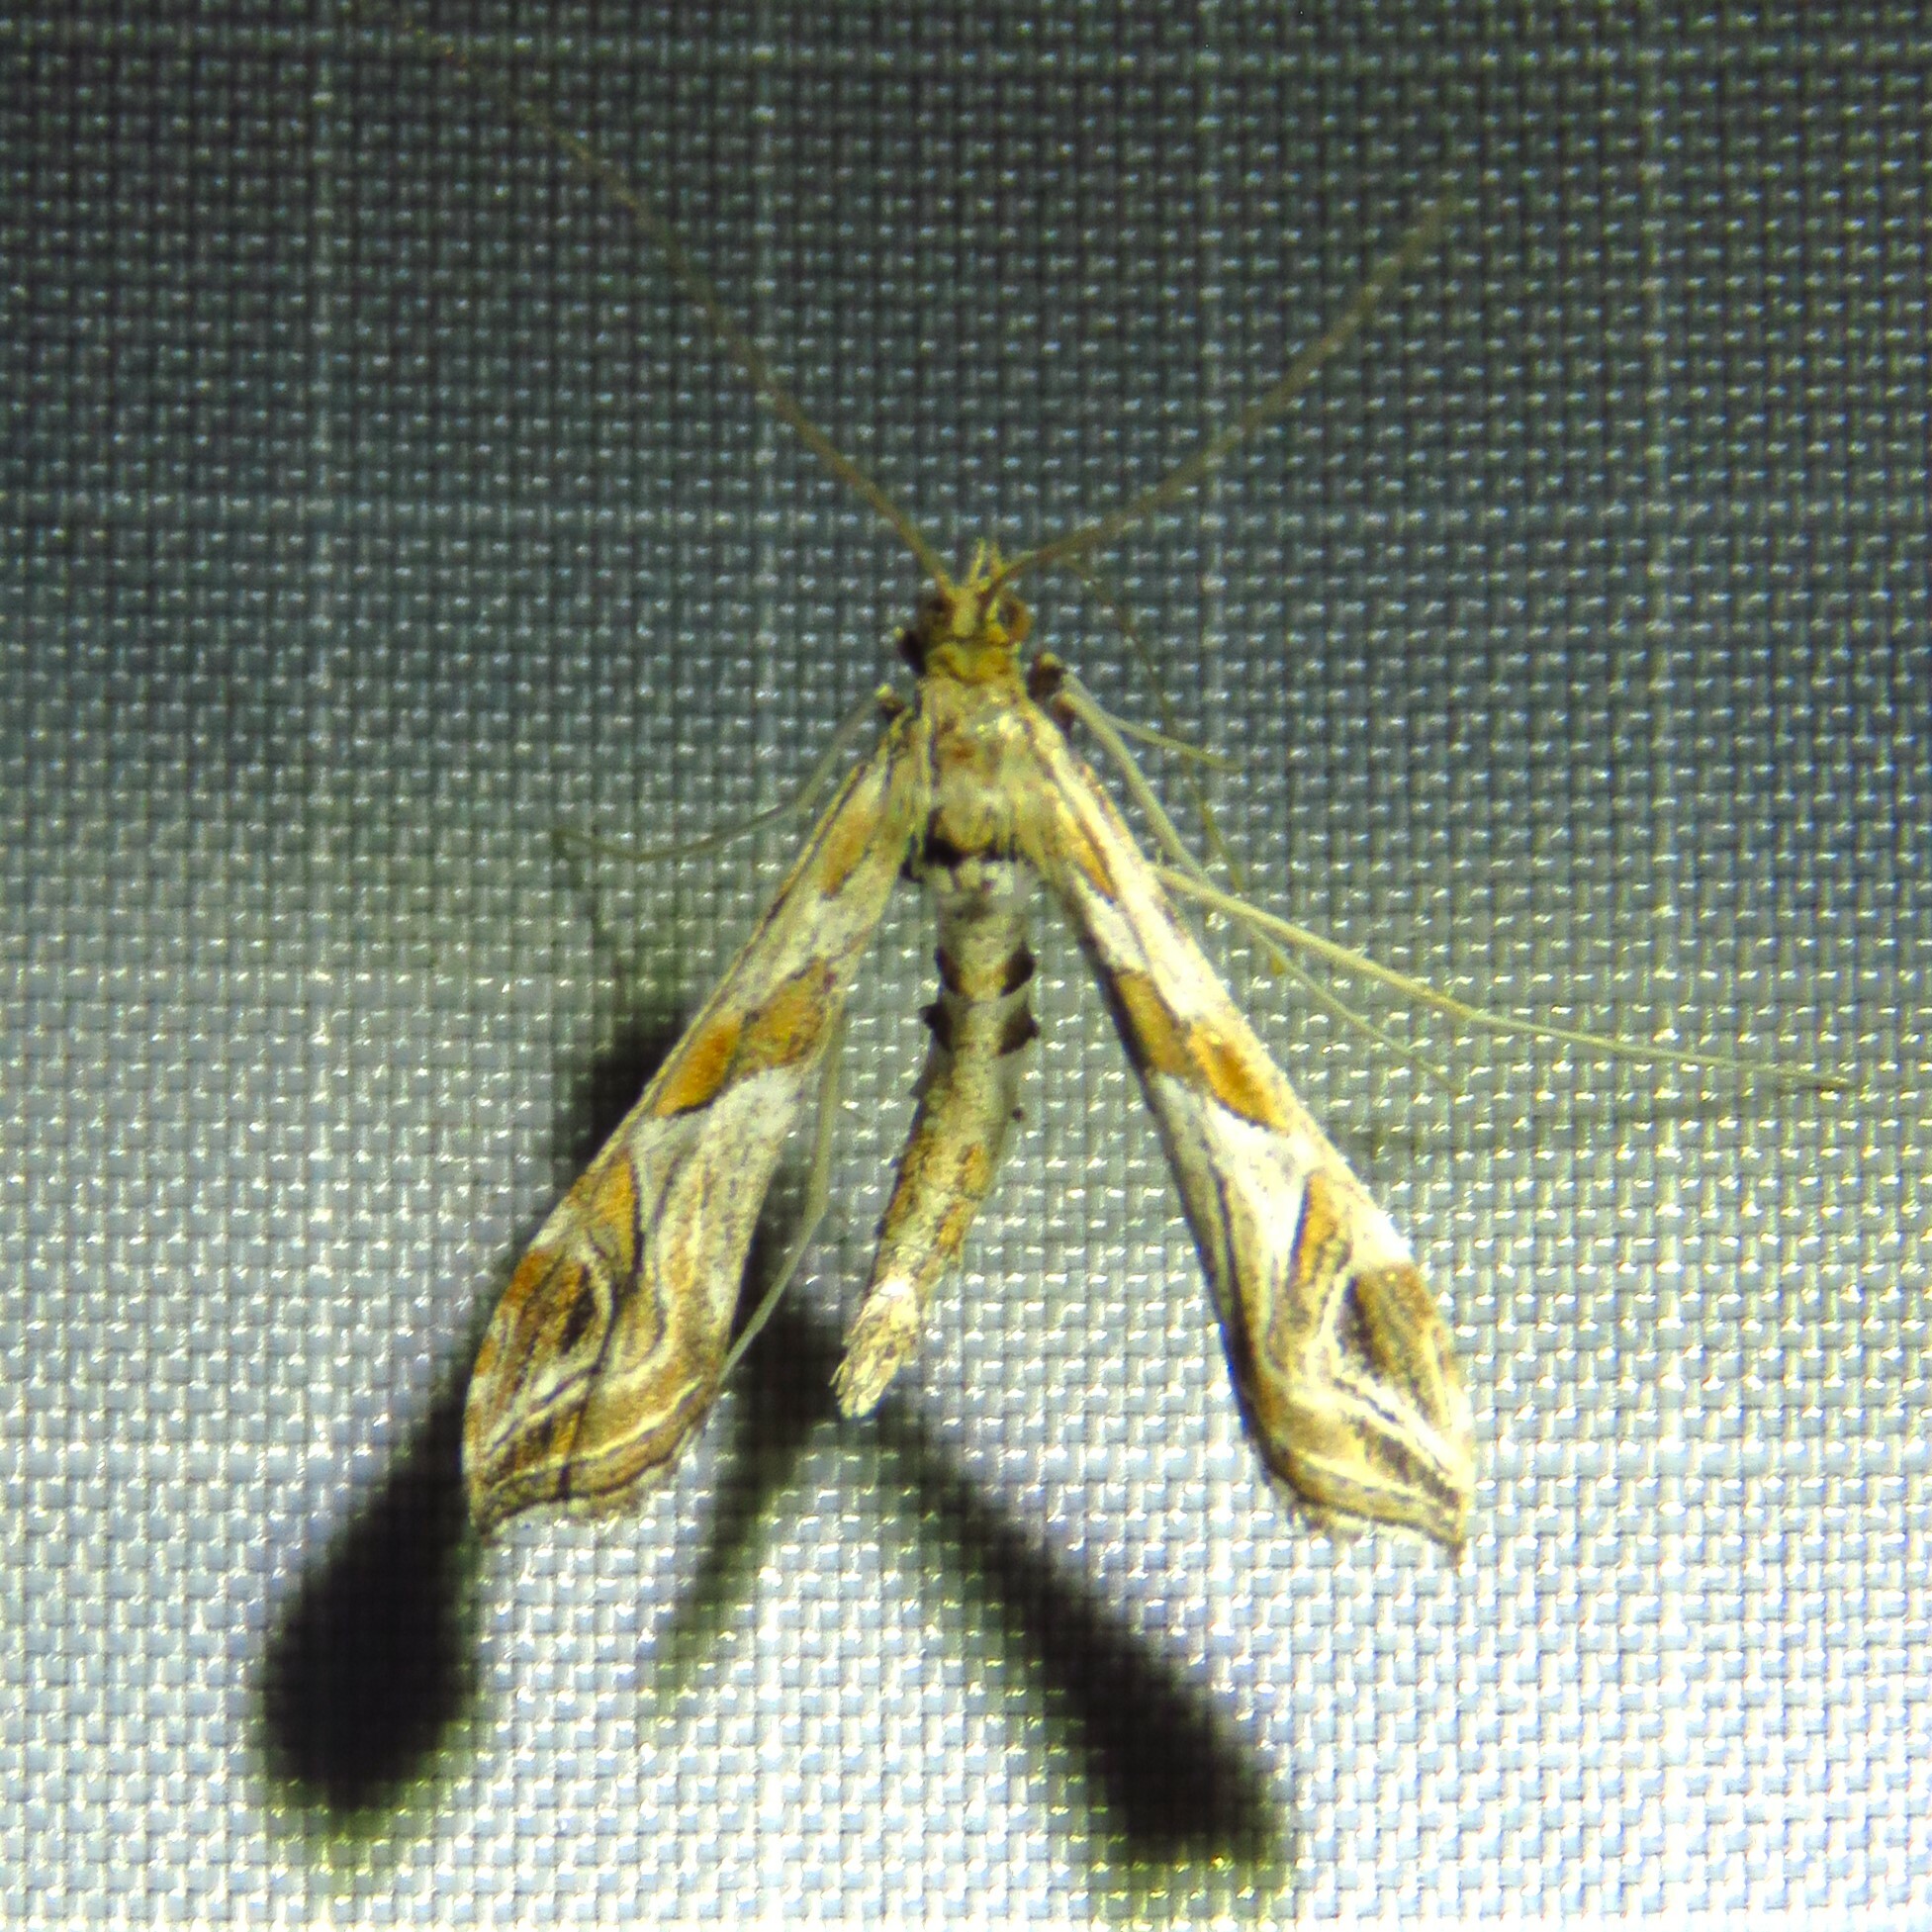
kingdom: Animalia
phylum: Arthropoda
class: Insecta
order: Lepidoptera
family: Crambidae
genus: Lineodes
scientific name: Lineodes interrupta
